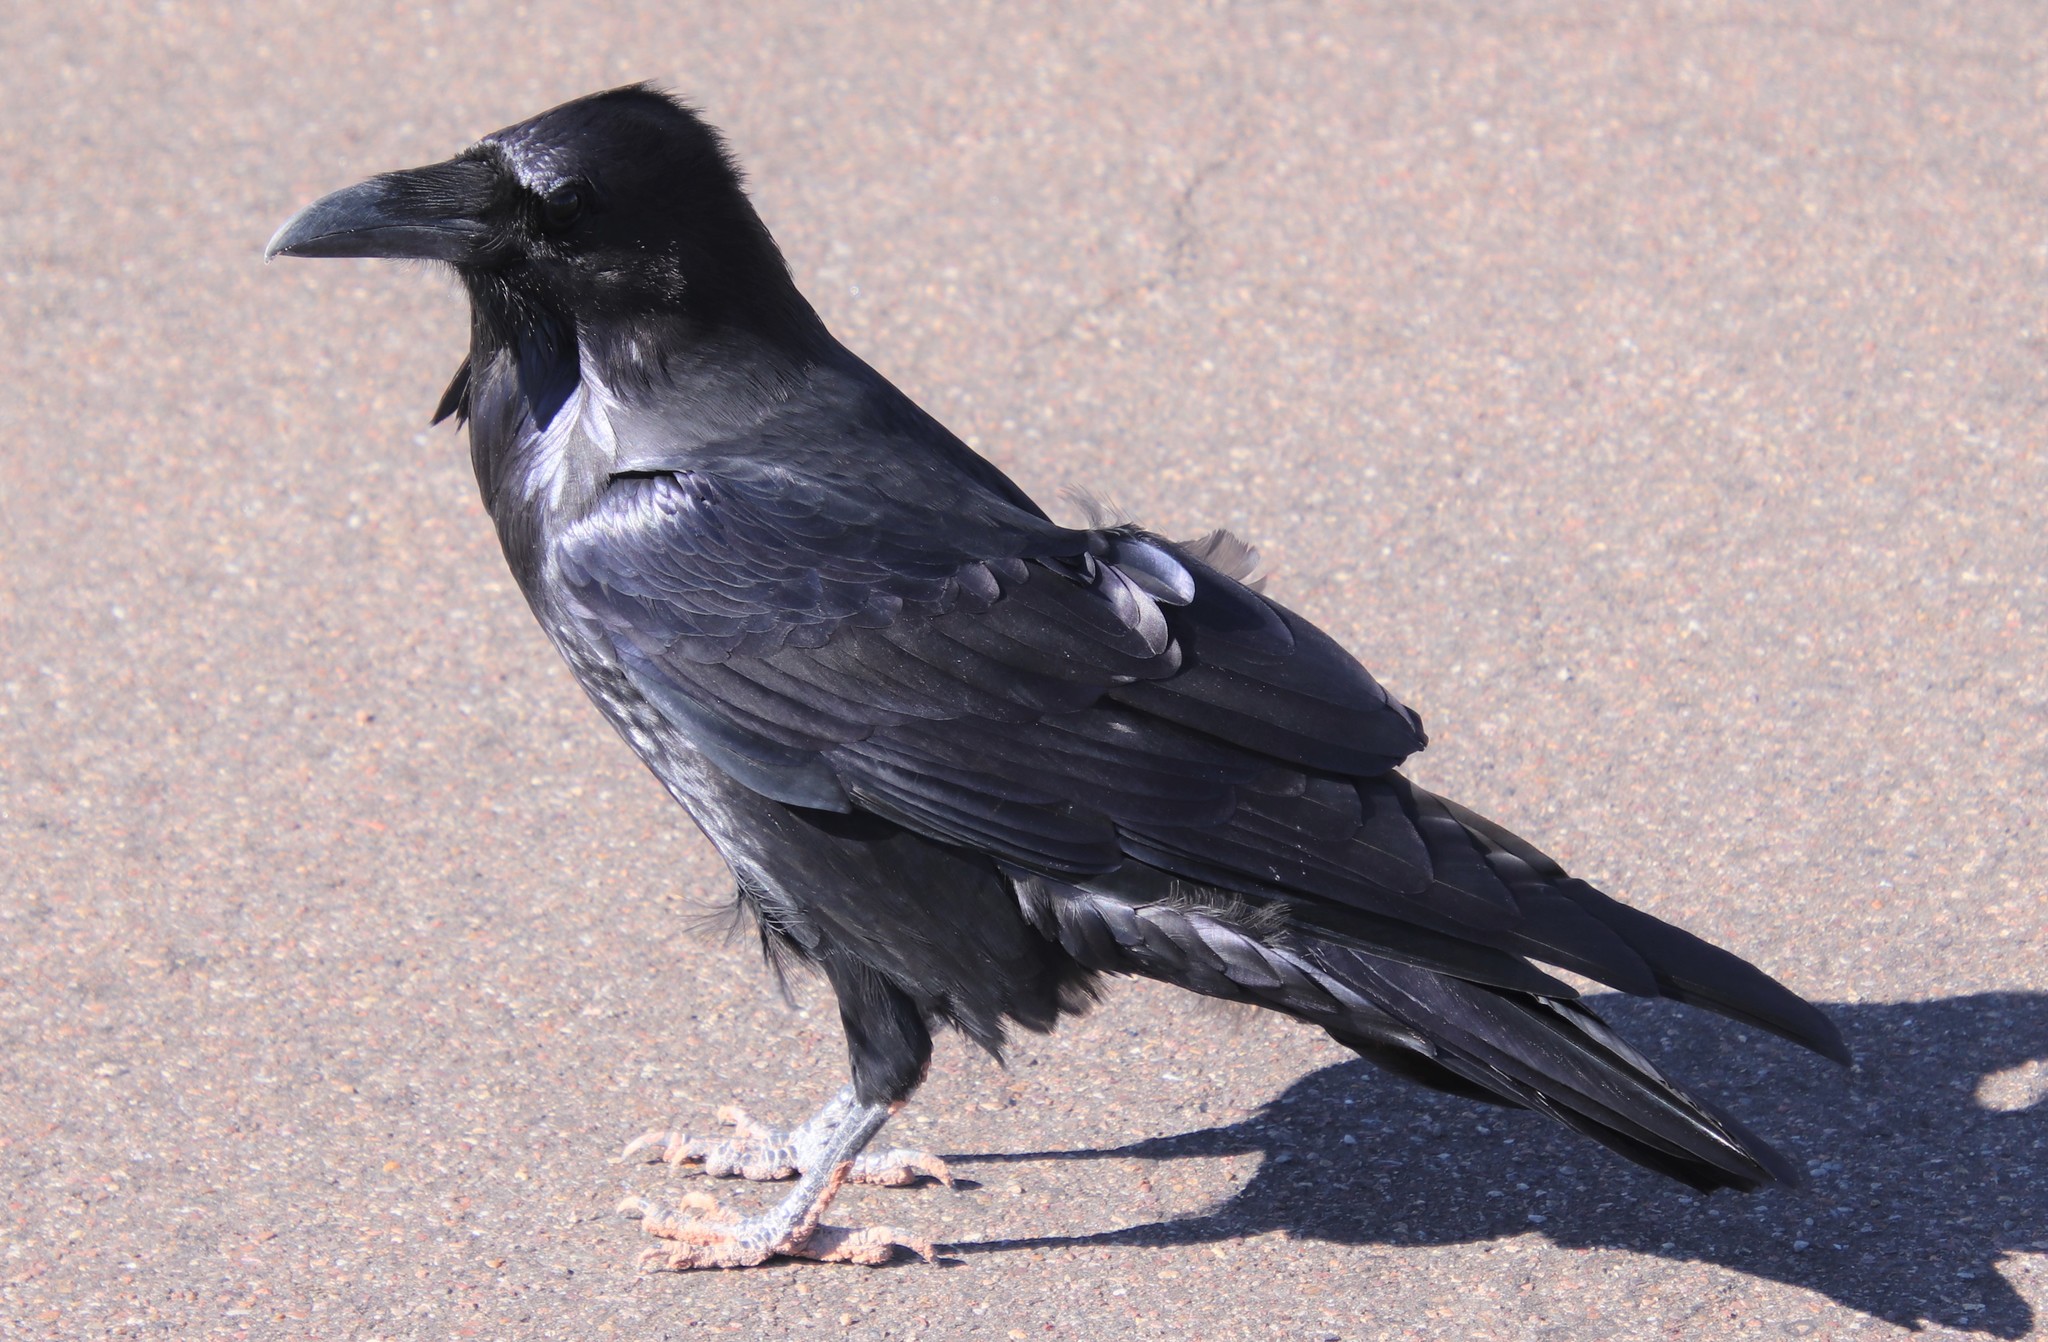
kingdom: Animalia
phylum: Chordata
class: Aves
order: Passeriformes
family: Corvidae
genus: Corvus
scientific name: Corvus corax
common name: Common raven
